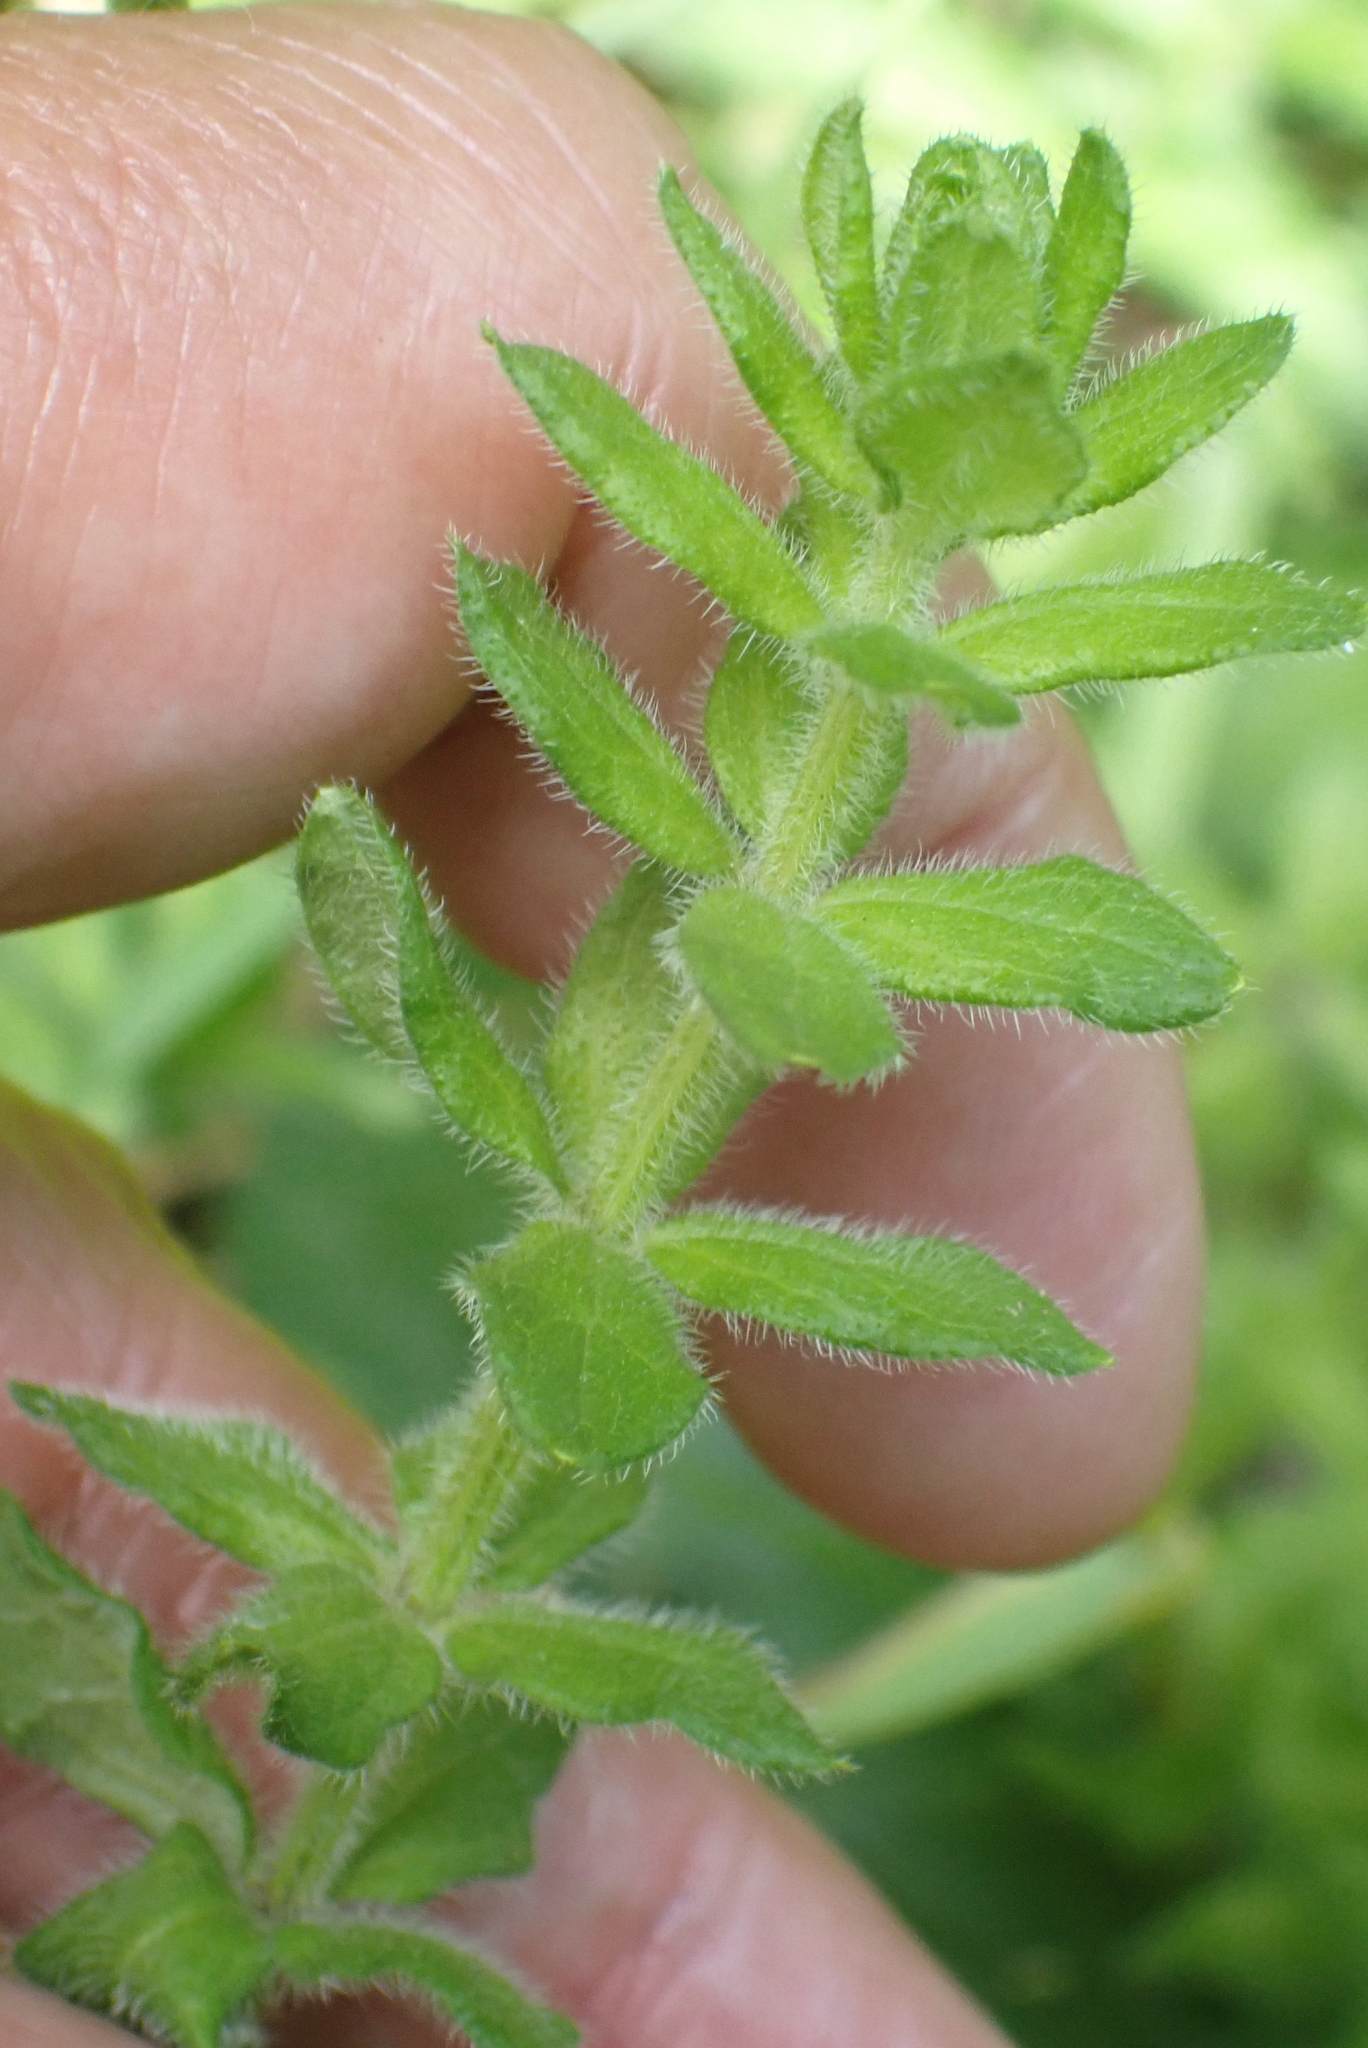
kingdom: Plantae
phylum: Tracheophyta
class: Magnoliopsida
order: Gentianales
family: Rubiaceae
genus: Cruciata
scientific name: Cruciata laevipes
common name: Crosswort
